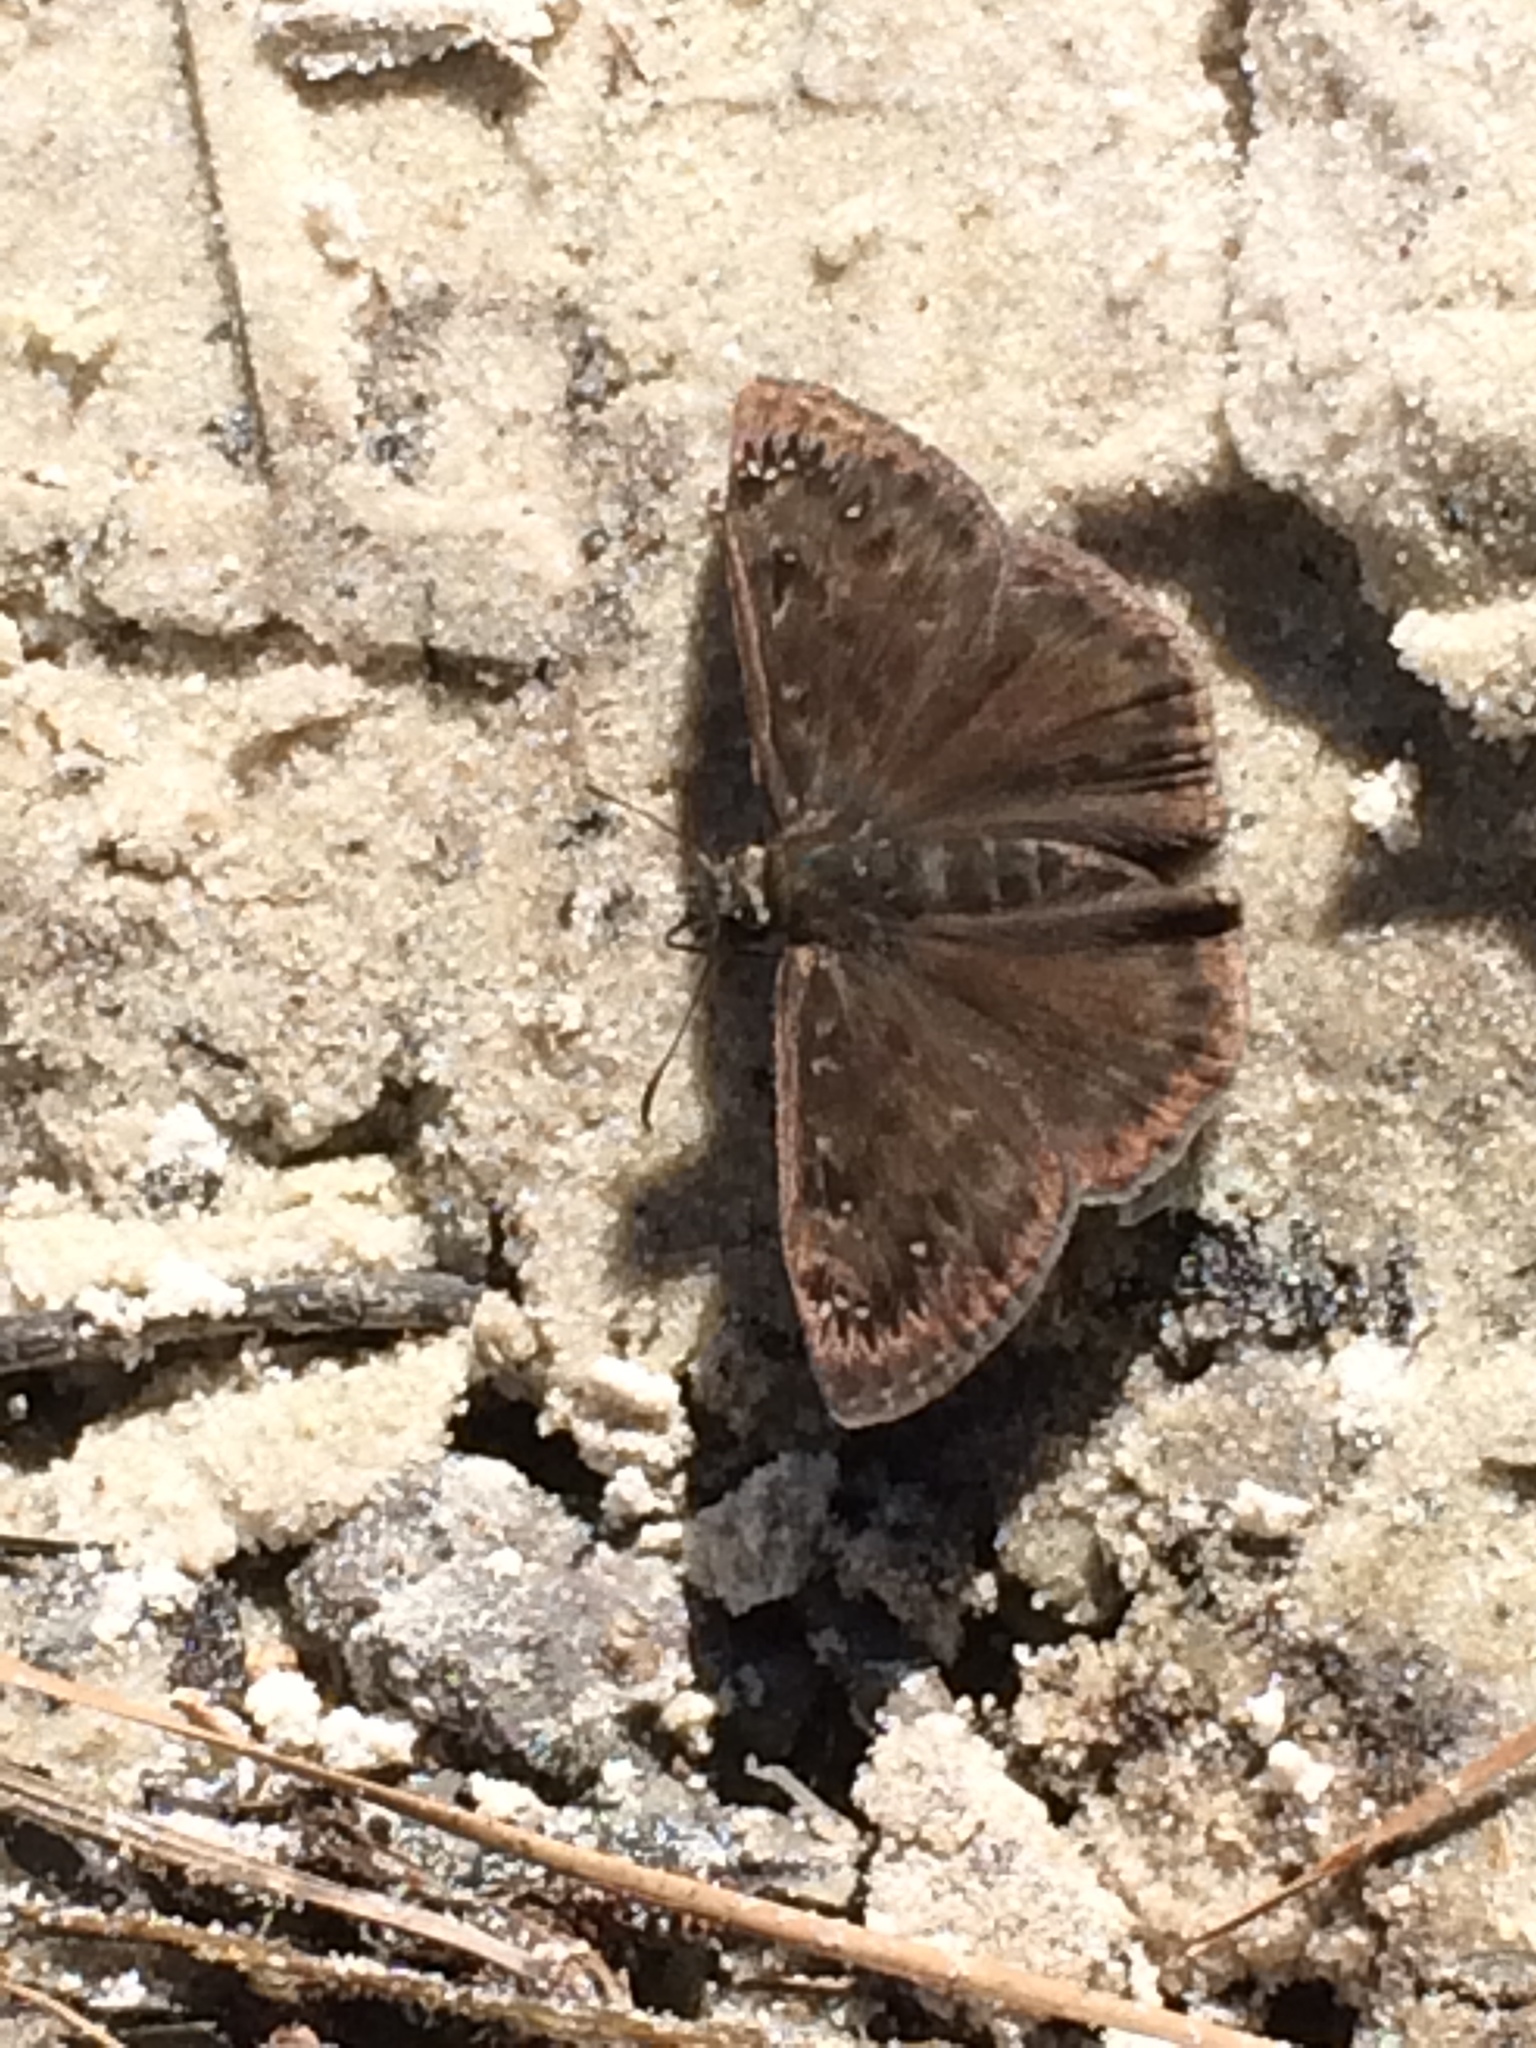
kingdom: Animalia
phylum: Arthropoda
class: Insecta
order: Lepidoptera
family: Hesperiidae
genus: Erynnis
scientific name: Erynnis horatius
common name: Horace's duskywing
